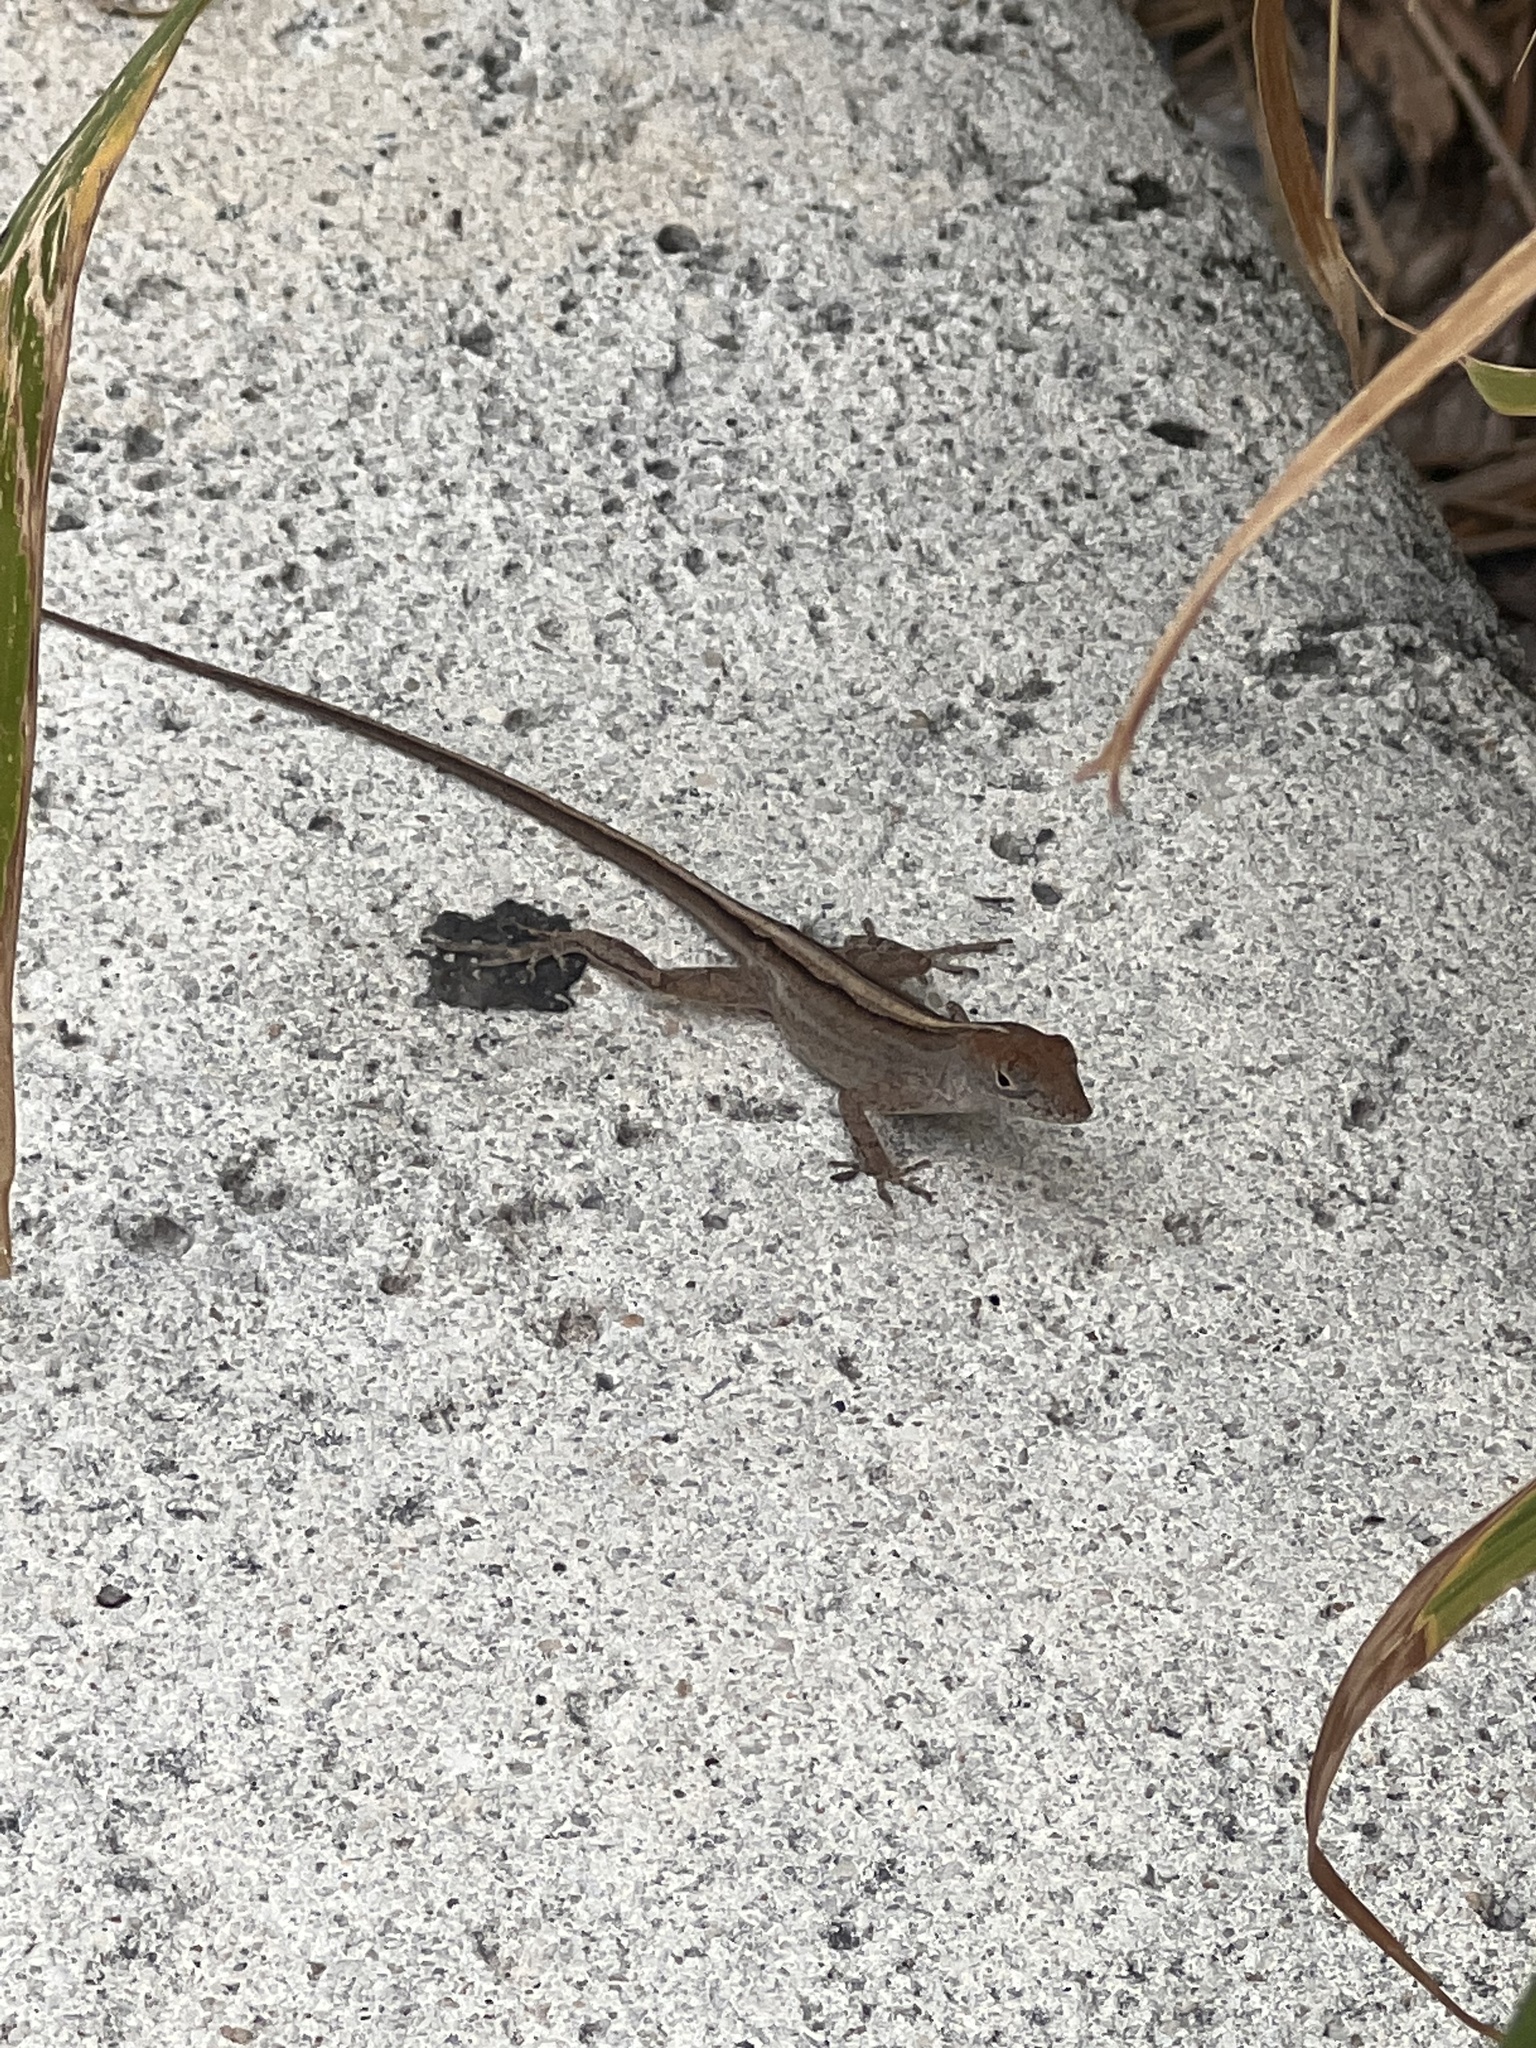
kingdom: Animalia
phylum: Chordata
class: Squamata
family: Dactyloidae
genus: Anolis
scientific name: Anolis sagrei
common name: Brown anole
